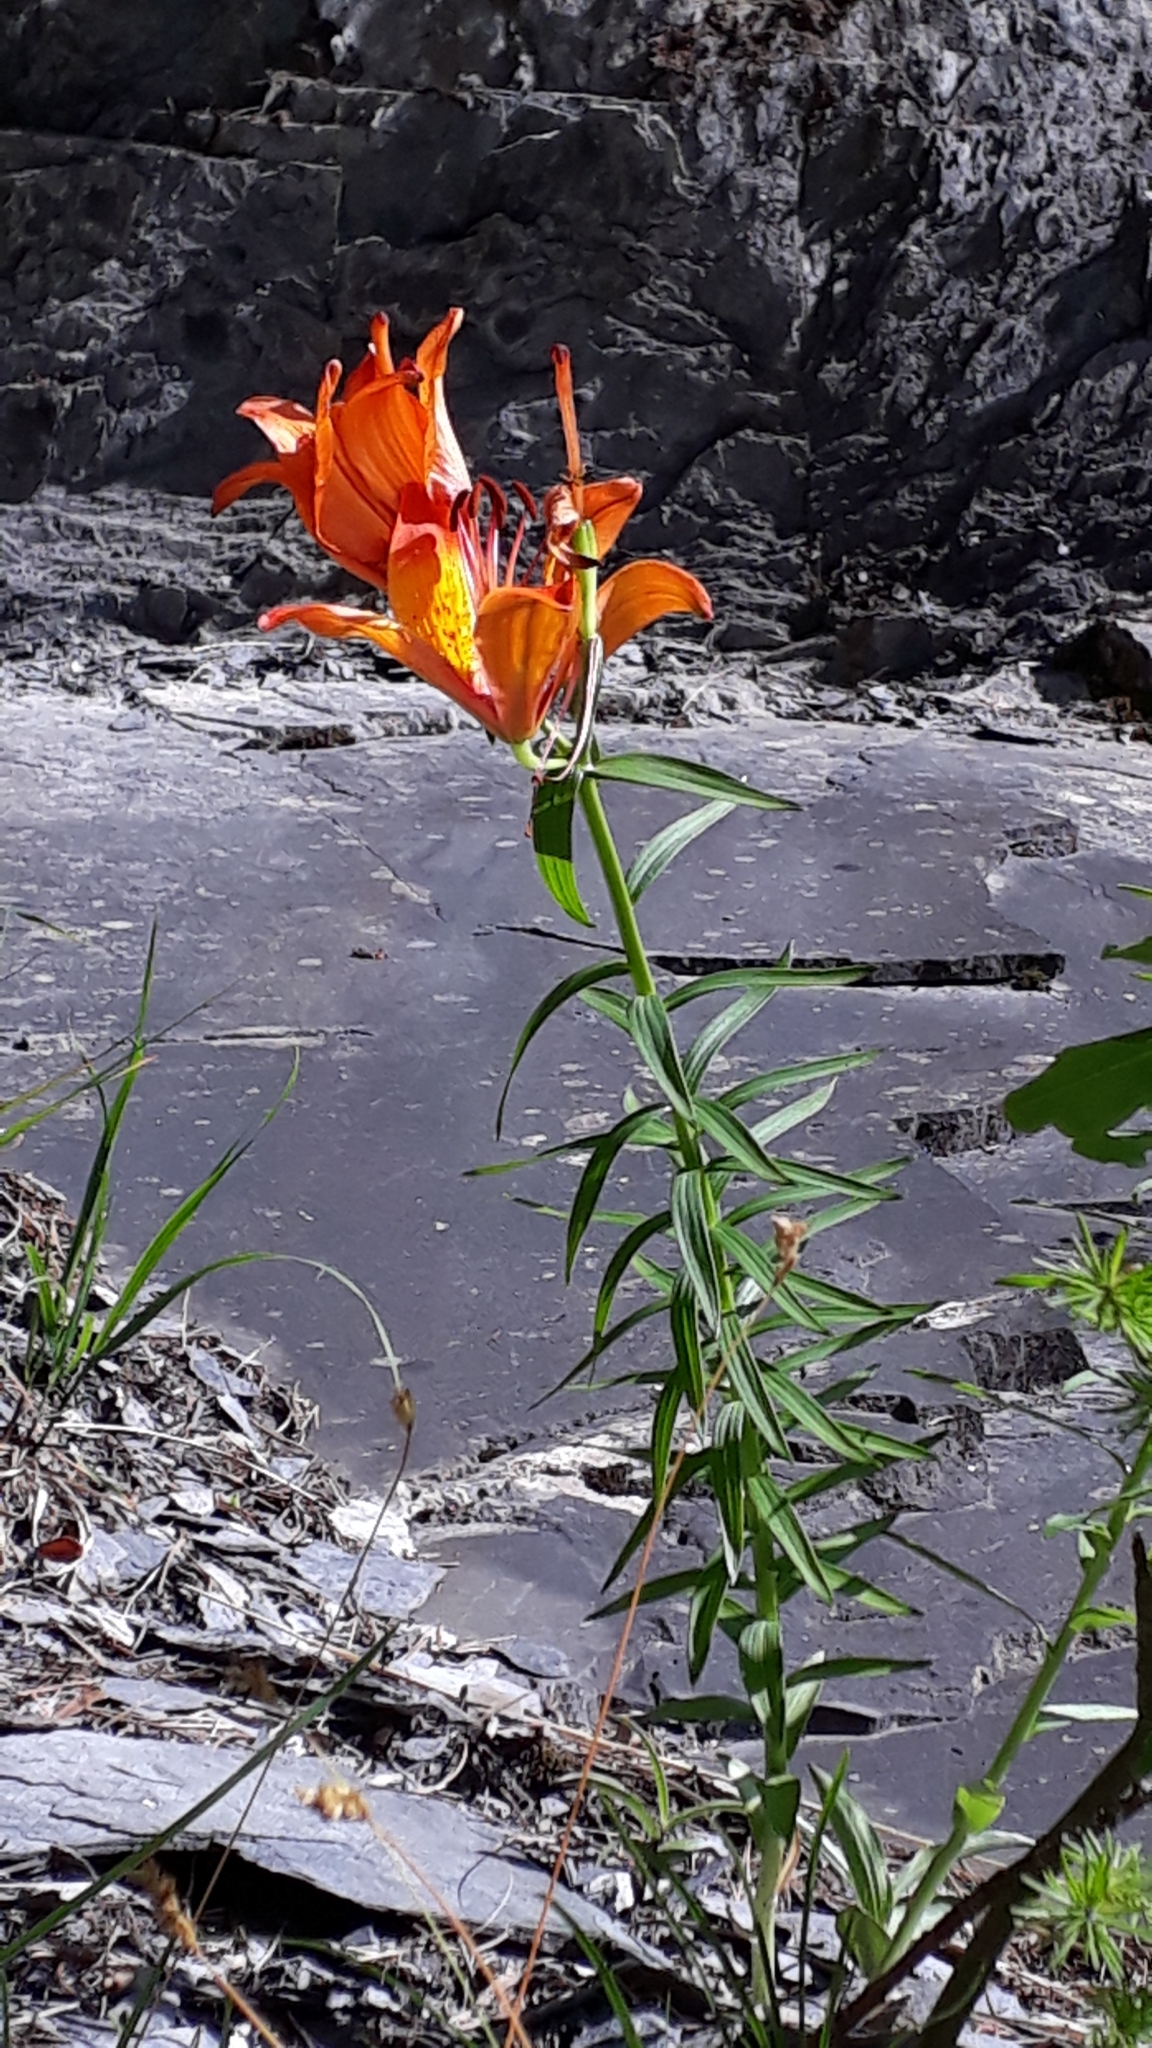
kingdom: Plantae
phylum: Tracheophyta
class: Liliopsida
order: Liliales
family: Liliaceae
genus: Lilium
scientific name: Lilium bulbiferum
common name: Orange lily
